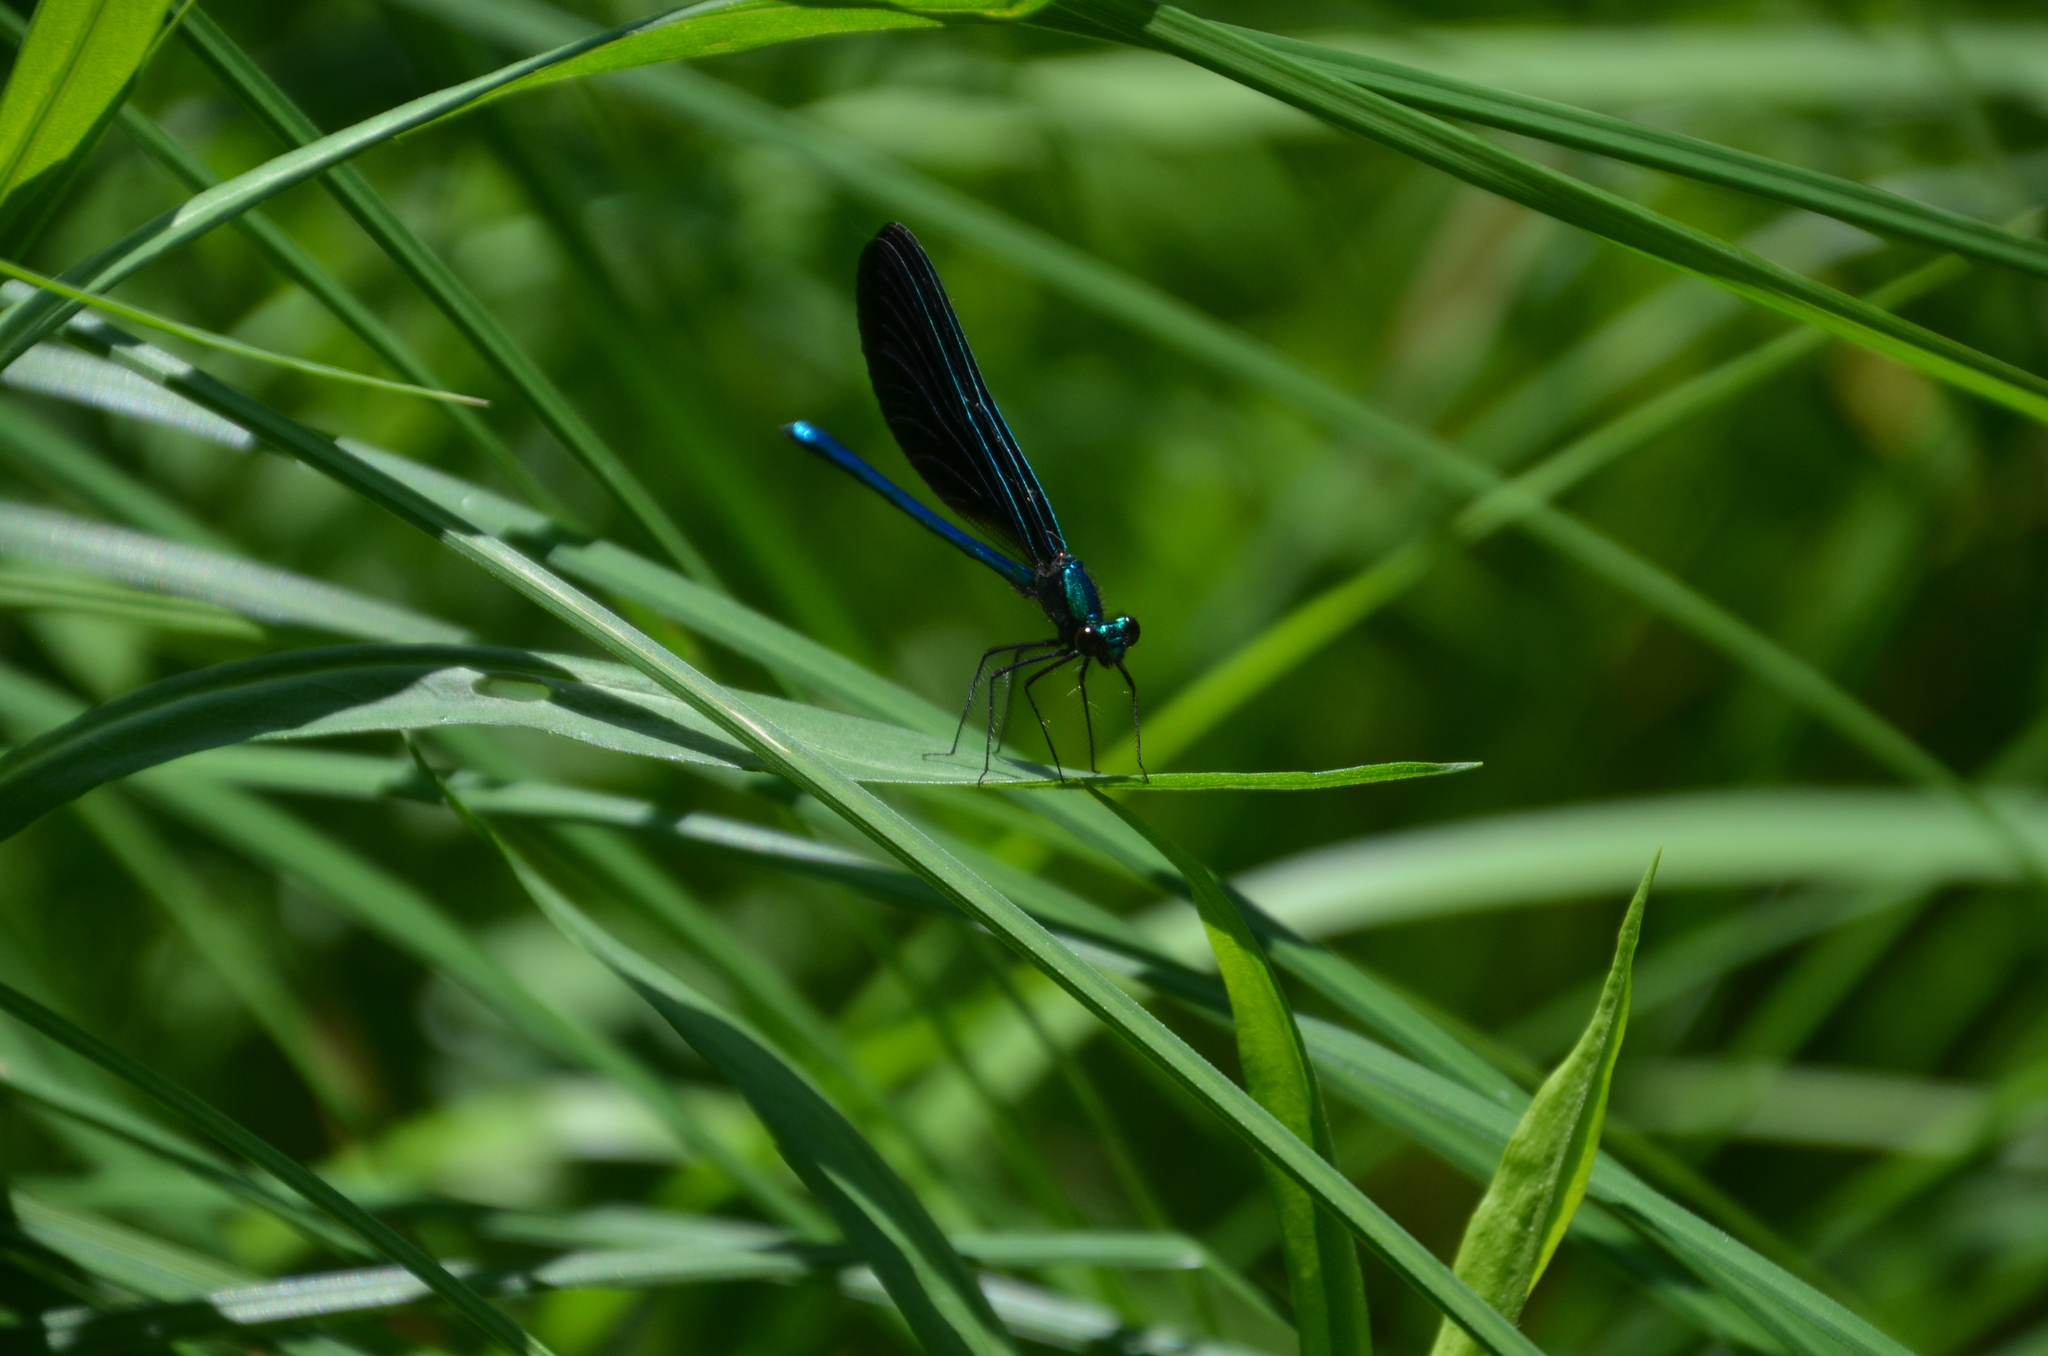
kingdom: Animalia
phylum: Arthropoda
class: Insecta
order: Odonata
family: Calopterygidae
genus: Calopteryx
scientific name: Calopteryx maculata
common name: Ebony jewelwing
